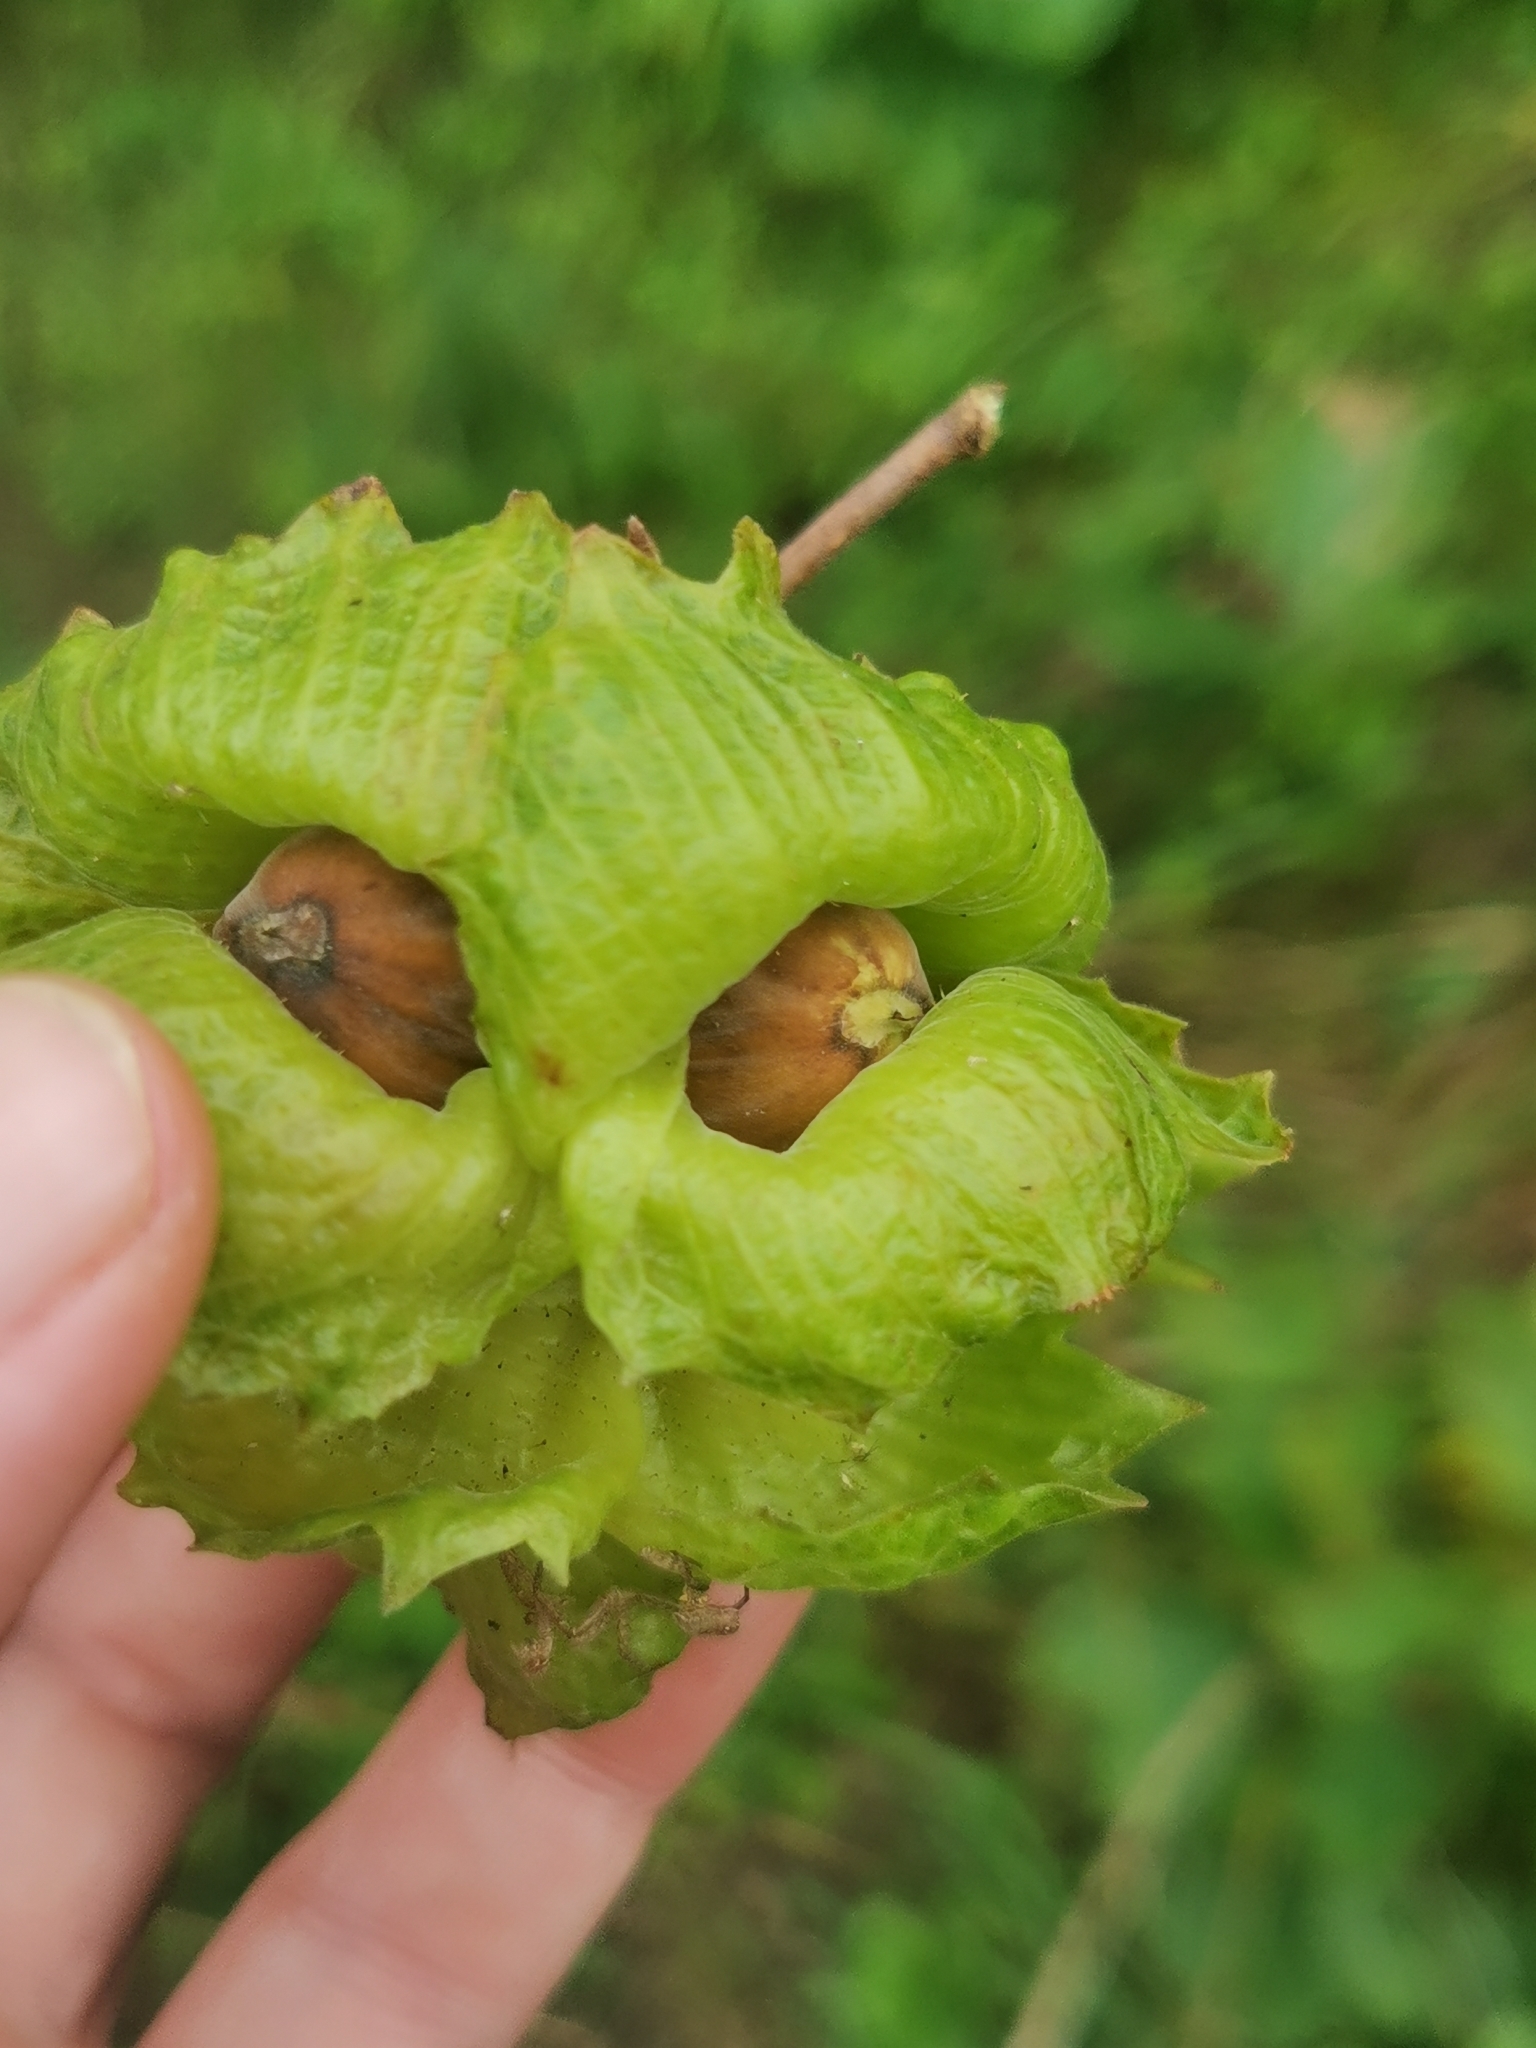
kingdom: Plantae
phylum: Tracheophyta
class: Magnoliopsida
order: Fagales
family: Betulaceae
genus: Corylus
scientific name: Corylus heterophylla
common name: Siberian hazelnut
